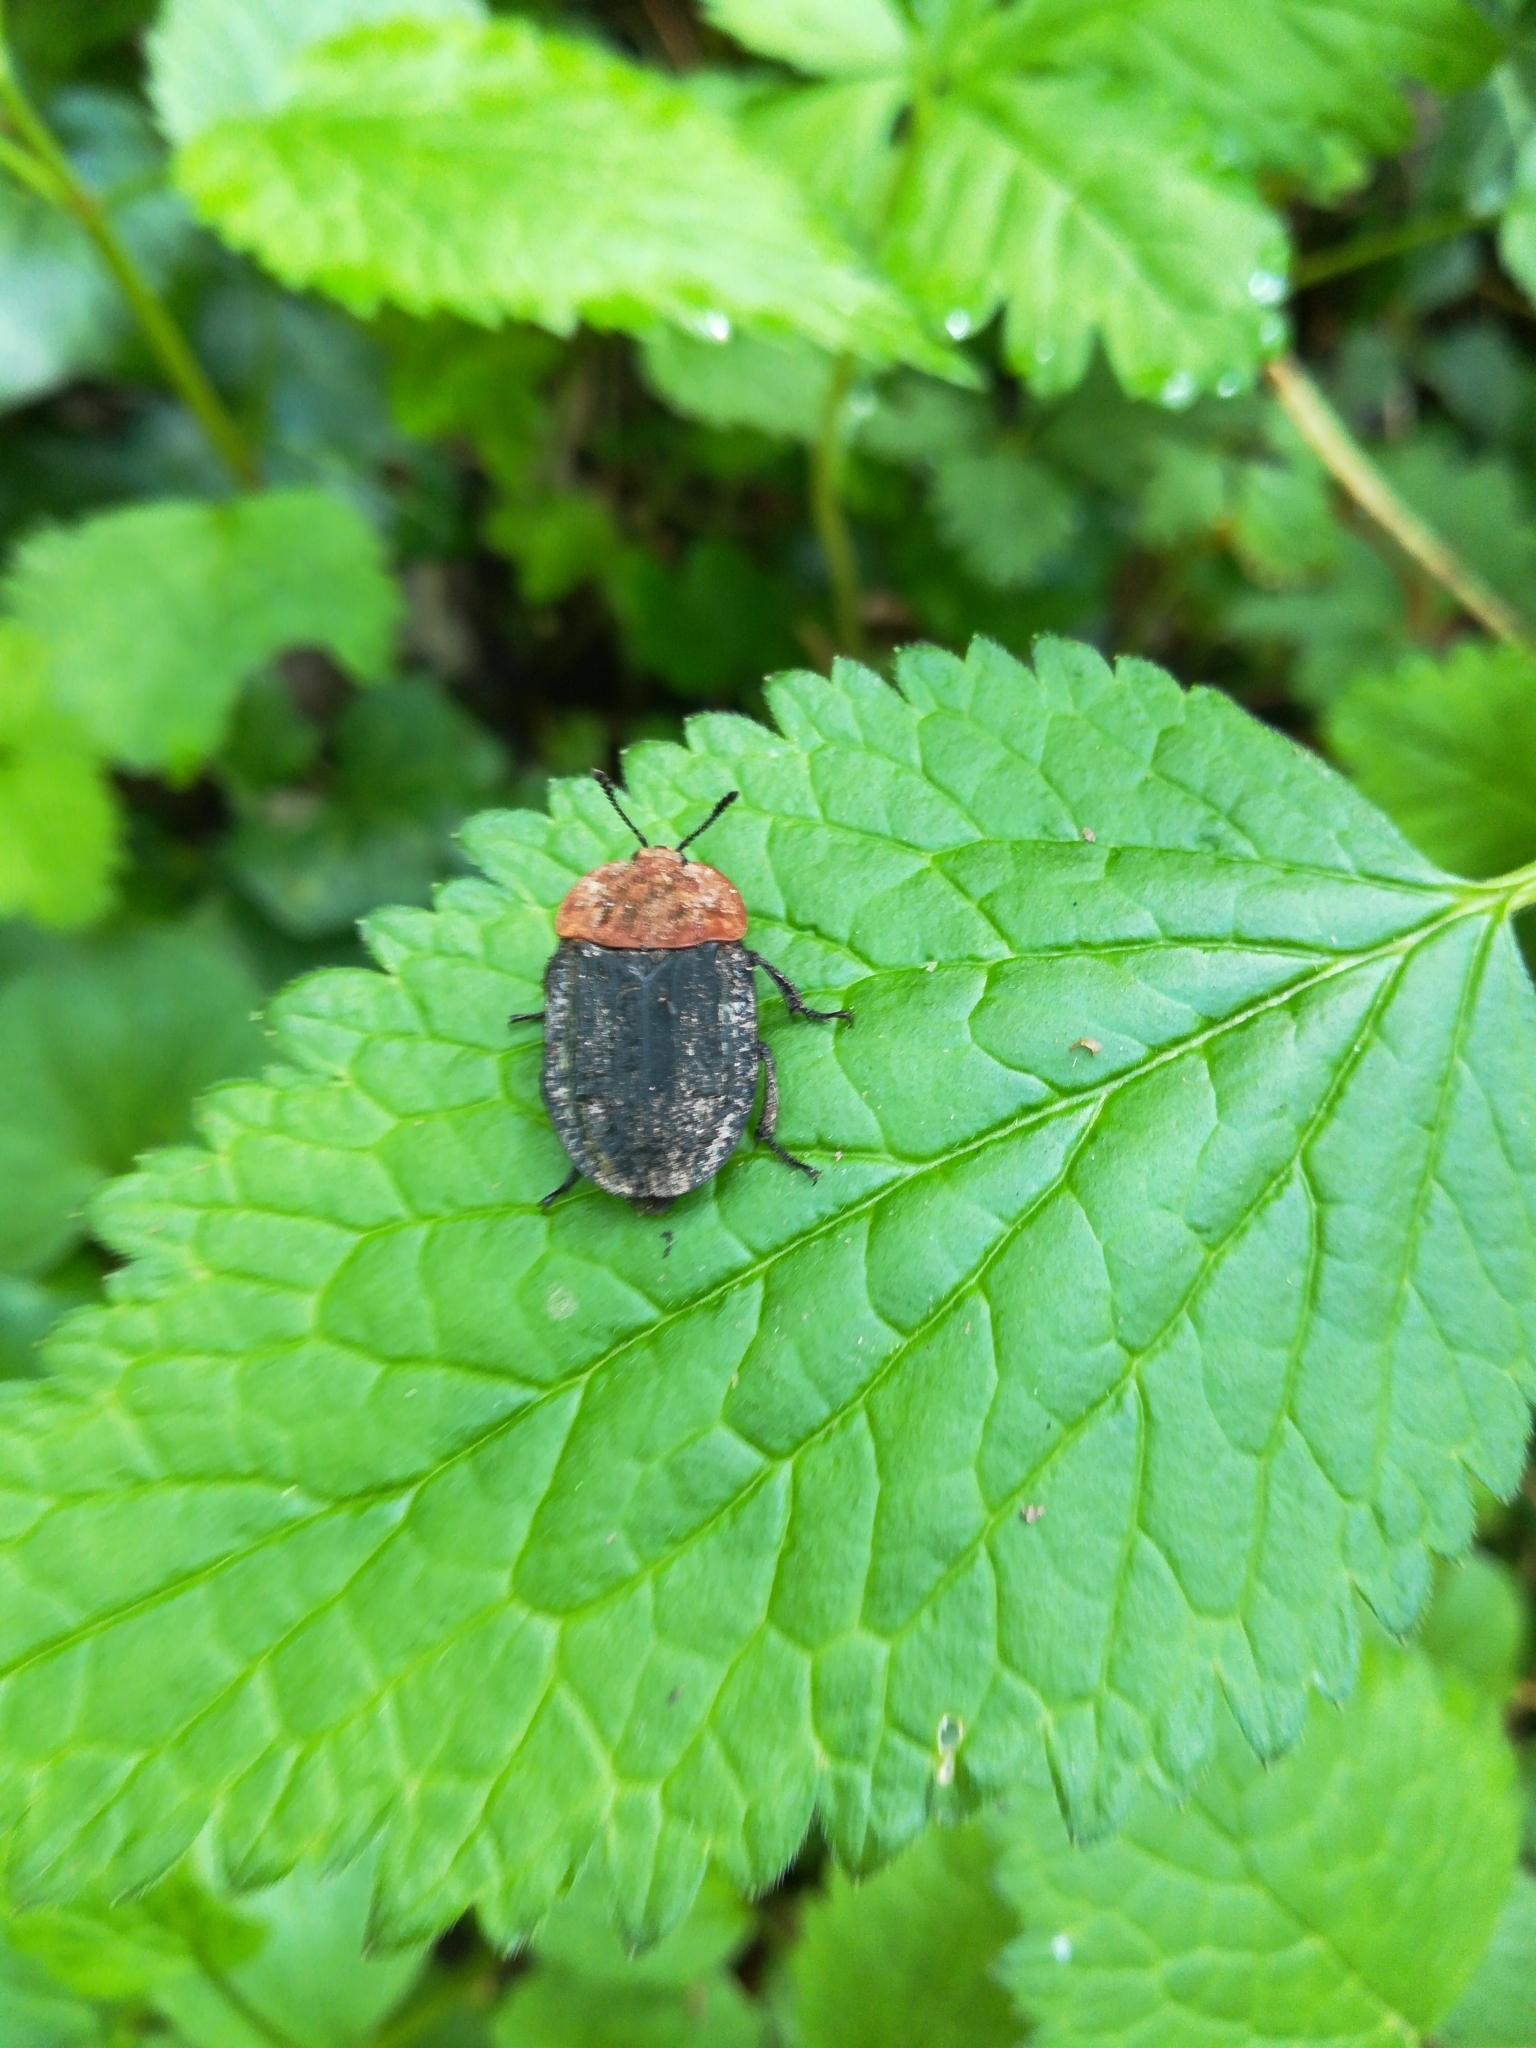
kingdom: Animalia
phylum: Arthropoda
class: Insecta
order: Coleoptera
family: Staphylinidae
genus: Oiceoptoma
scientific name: Oiceoptoma thoracicum
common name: Red-breasted carrion beetle
